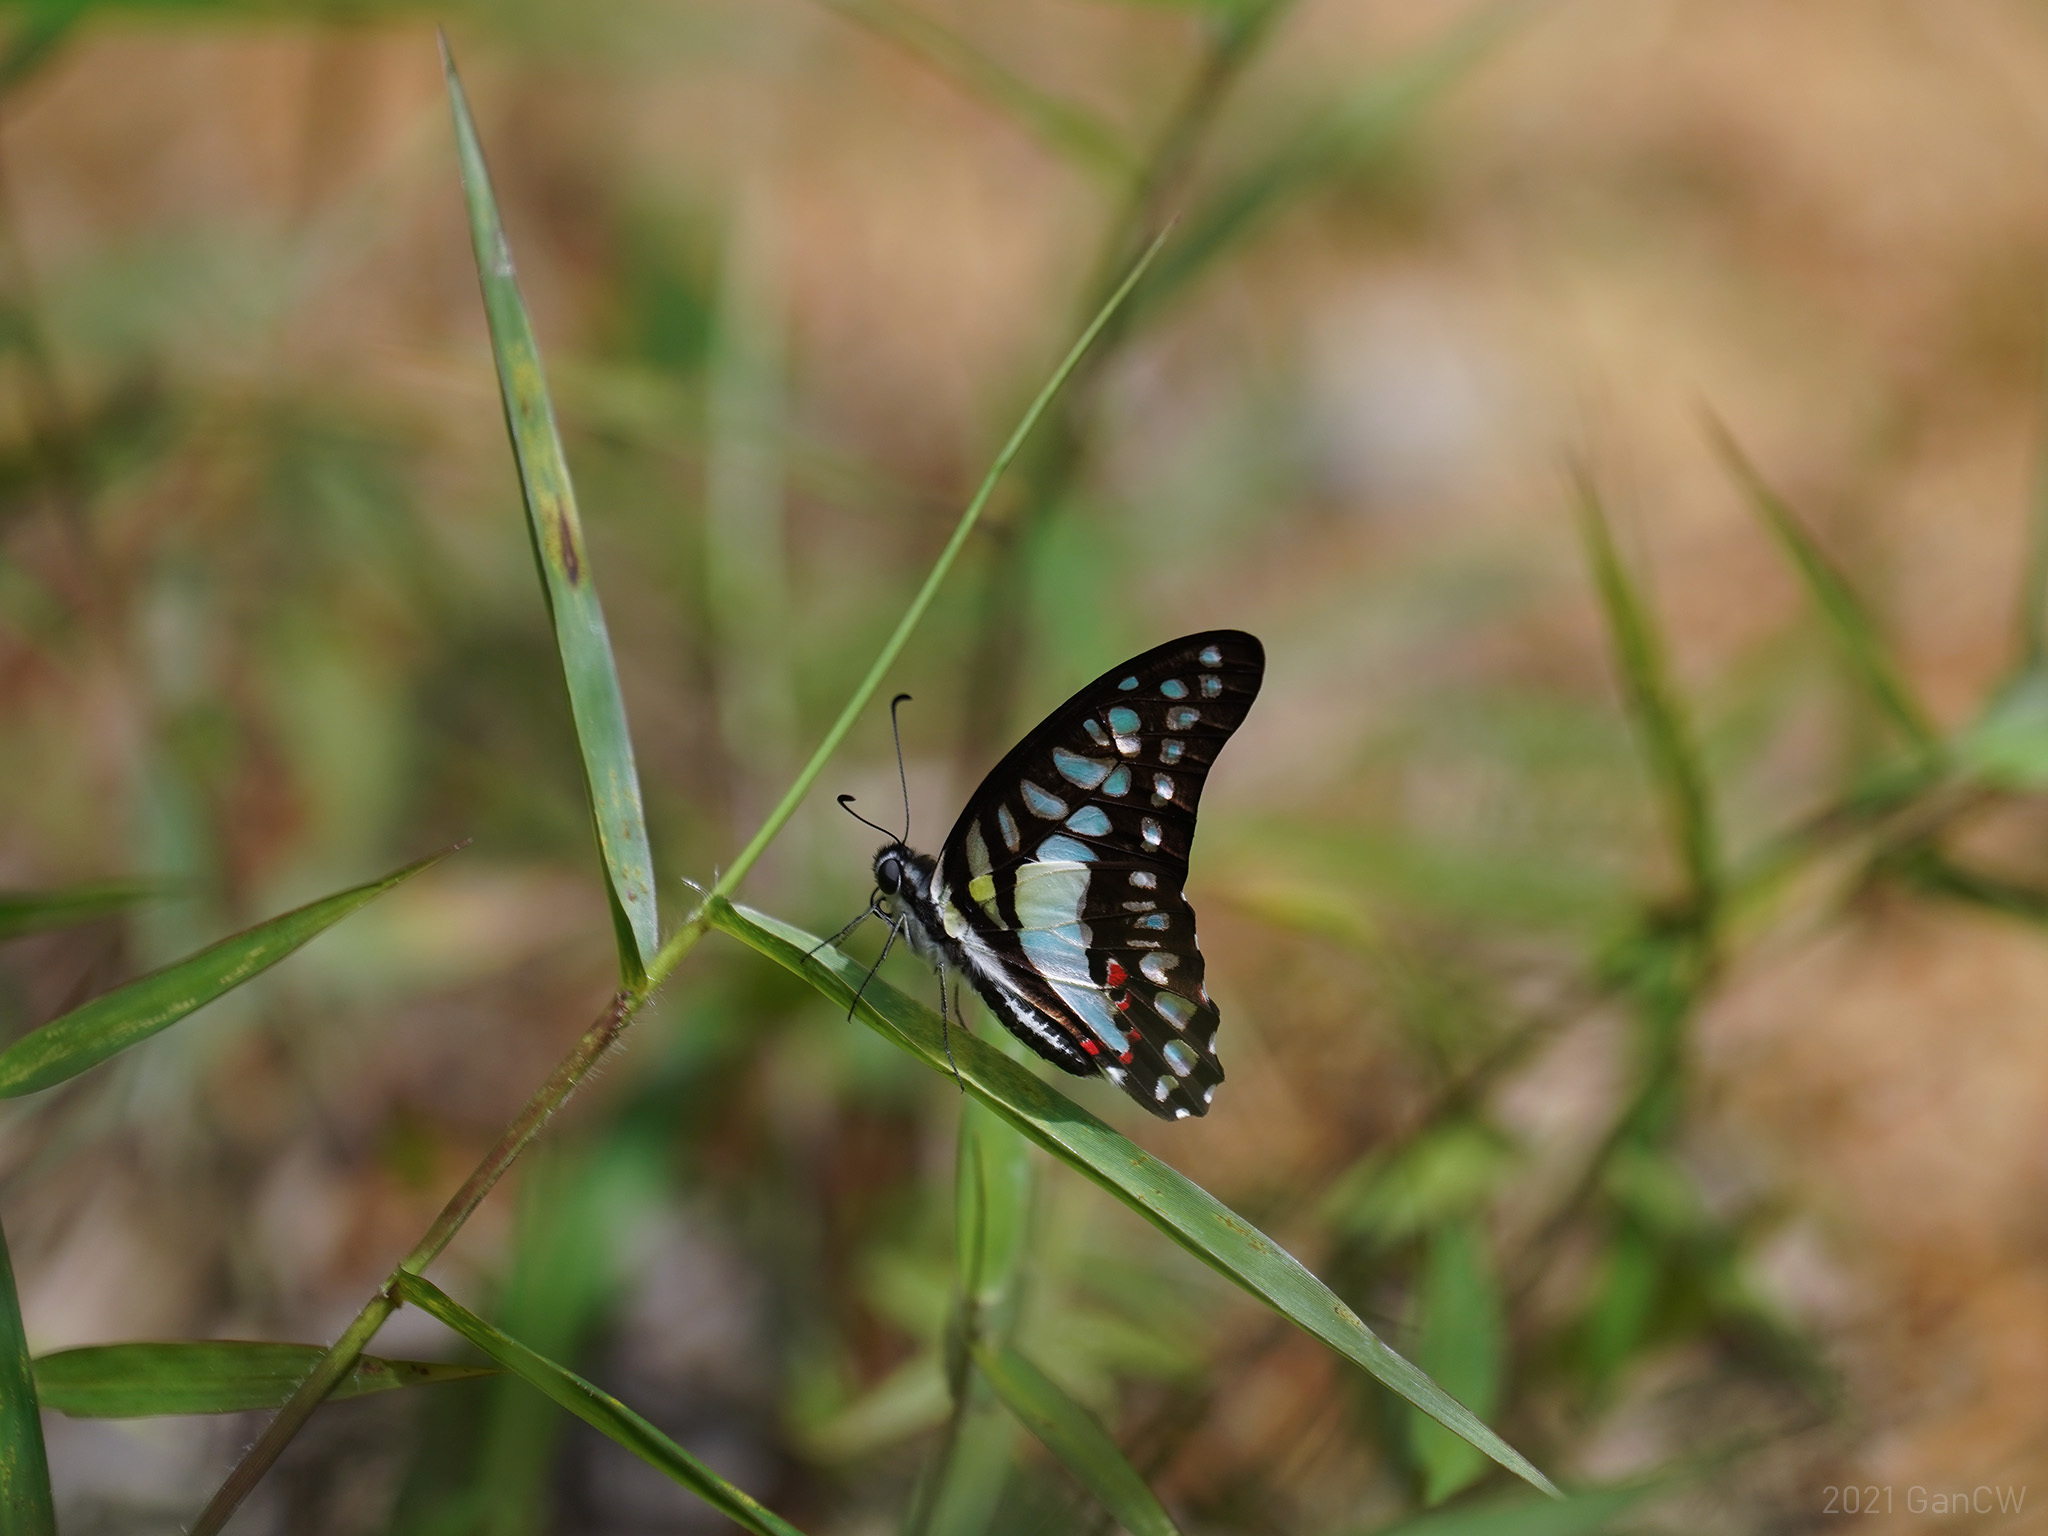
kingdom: Animalia
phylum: Arthropoda
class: Insecta
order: Lepidoptera
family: Papilionidae
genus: Graphium
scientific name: Graphium evemon
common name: Lesser jay
